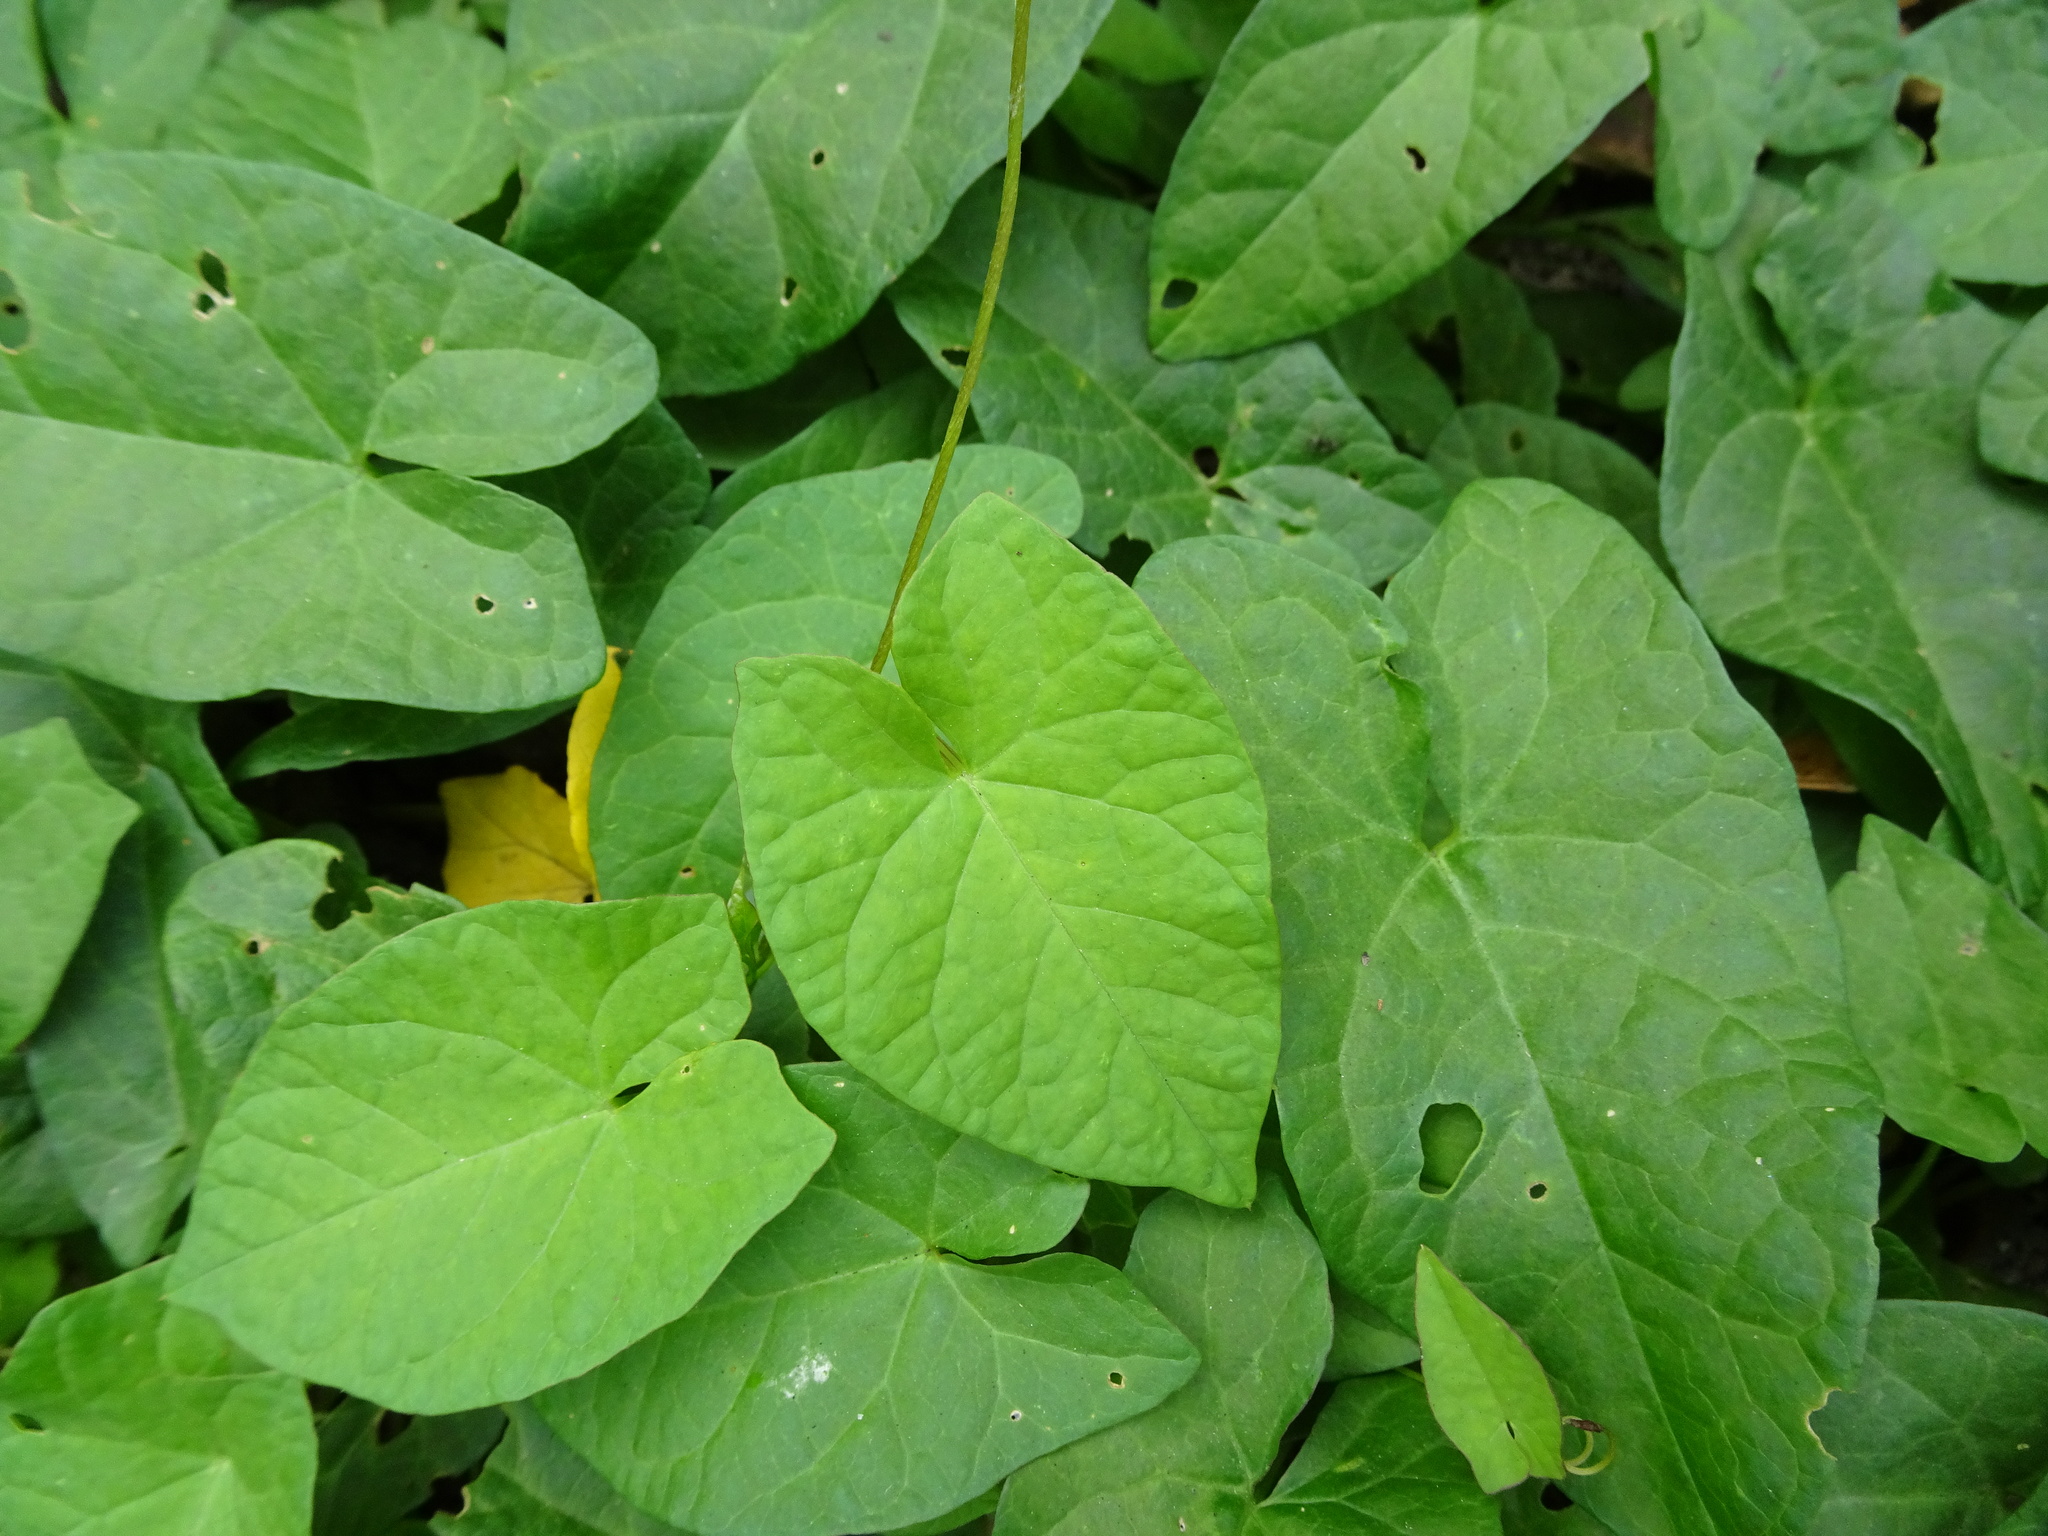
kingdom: Plantae
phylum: Tracheophyta
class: Magnoliopsida
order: Solanales
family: Convolvulaceae
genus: Calystegia
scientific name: Calystegia sepium
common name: Hedge bindweed
